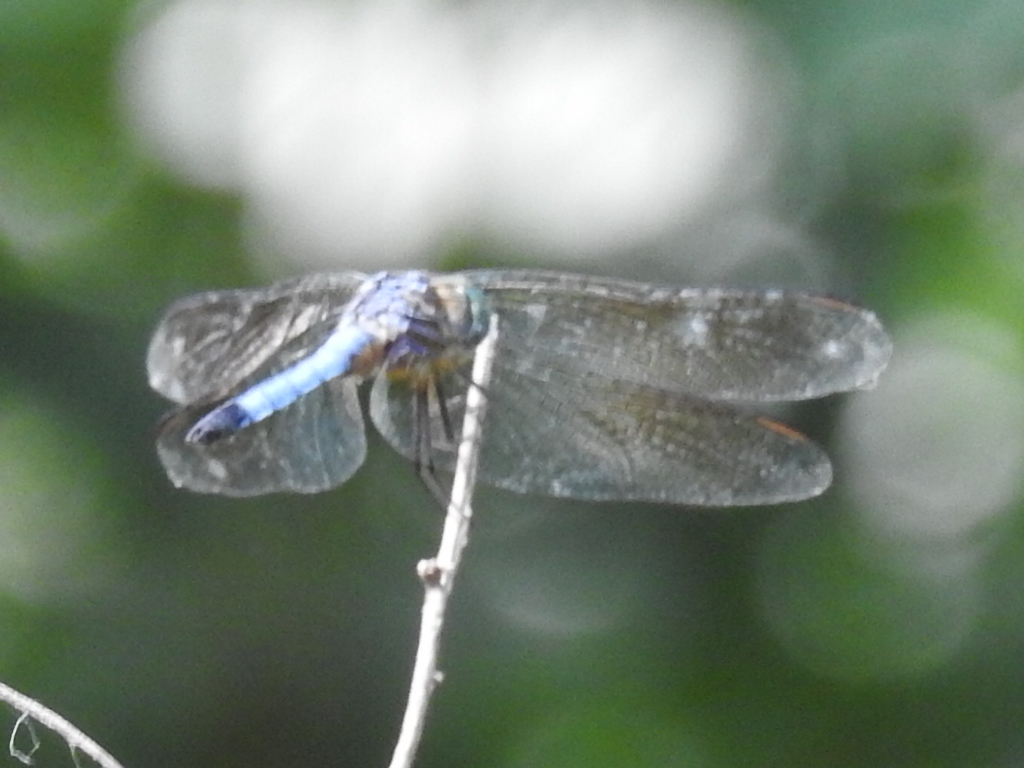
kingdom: Animalia
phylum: Arthropoda
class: Insecta
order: Odonata
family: Libellulidae
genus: Pachydiplax
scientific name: Pachydiplax longipennis
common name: Blue dasher
